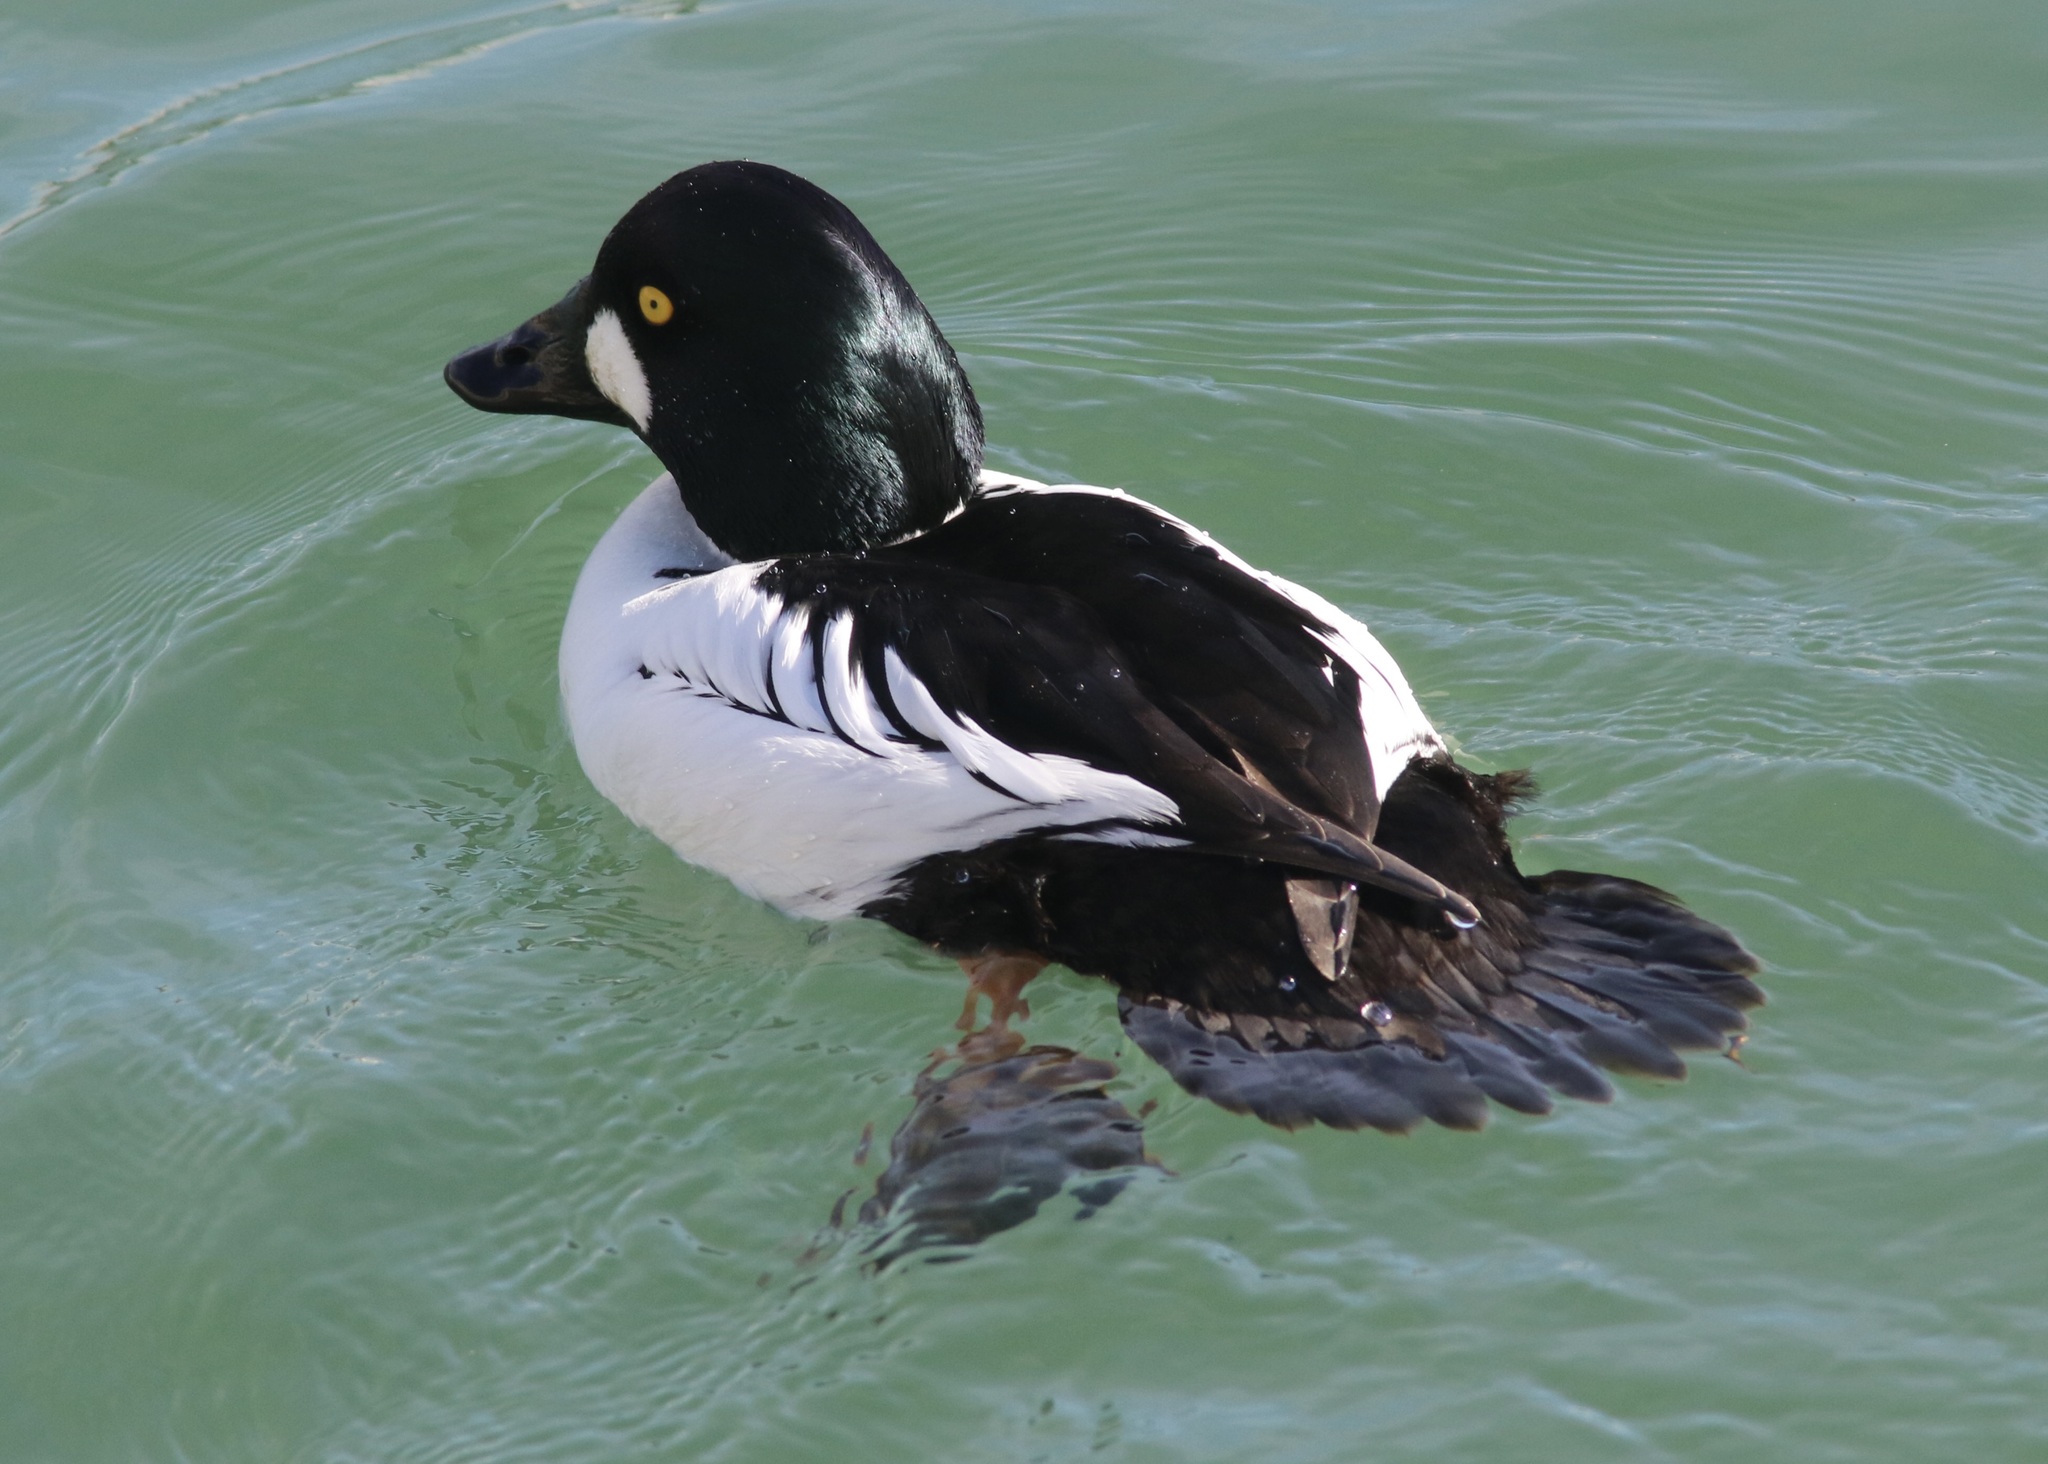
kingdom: Animalia
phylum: Chordata
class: Aves
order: Anseriformes
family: Anatidae
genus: Bucephala
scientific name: Bucephala clangula
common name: Common goldeneye
